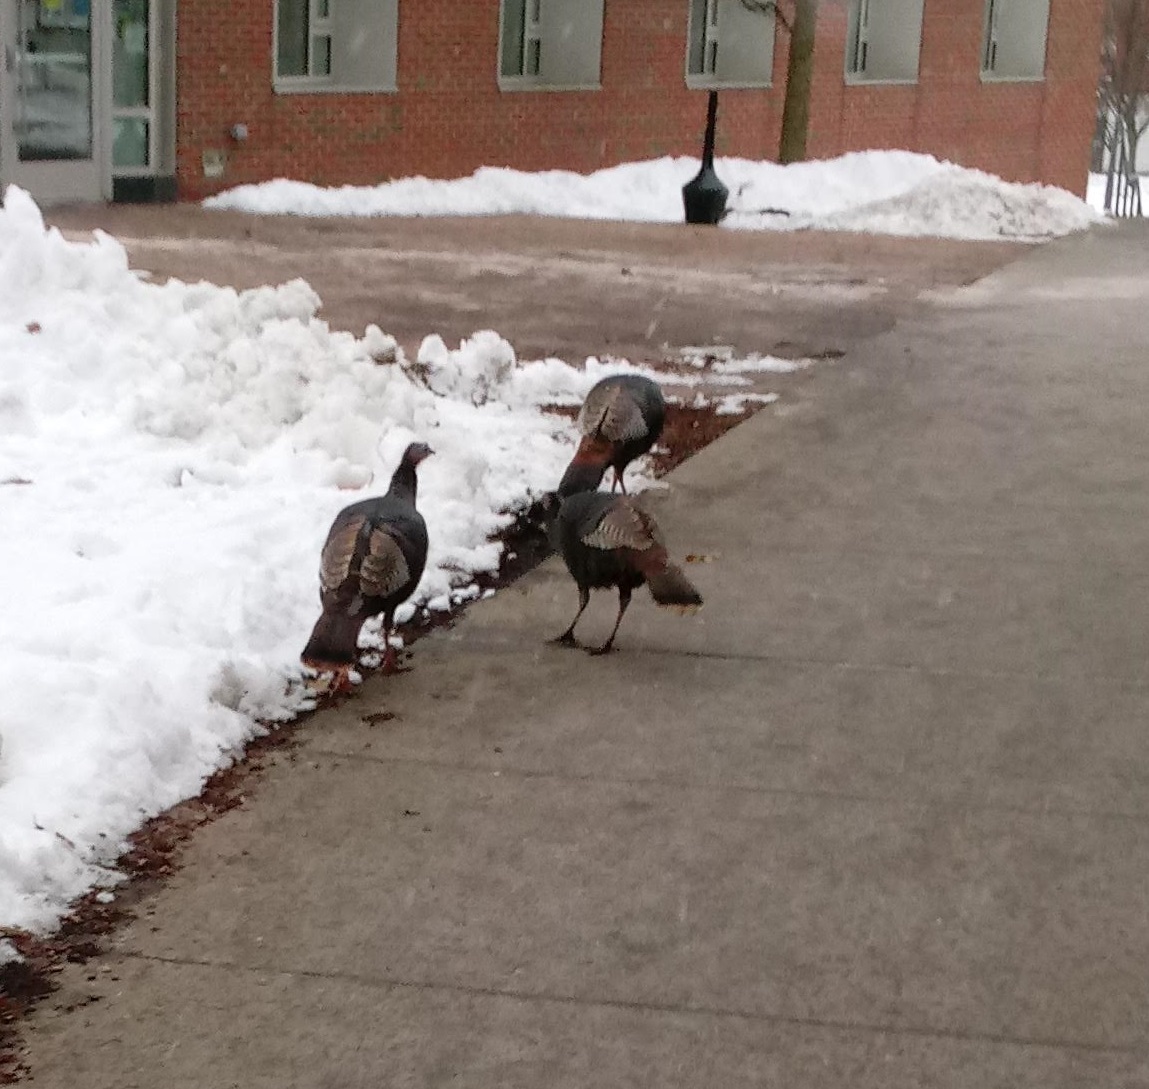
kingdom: Animalia
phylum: Chordata
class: Aves
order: Galliformes
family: Phasianidae
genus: Meleagris
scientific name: Meleagris gallopavo
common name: Wild turkey
